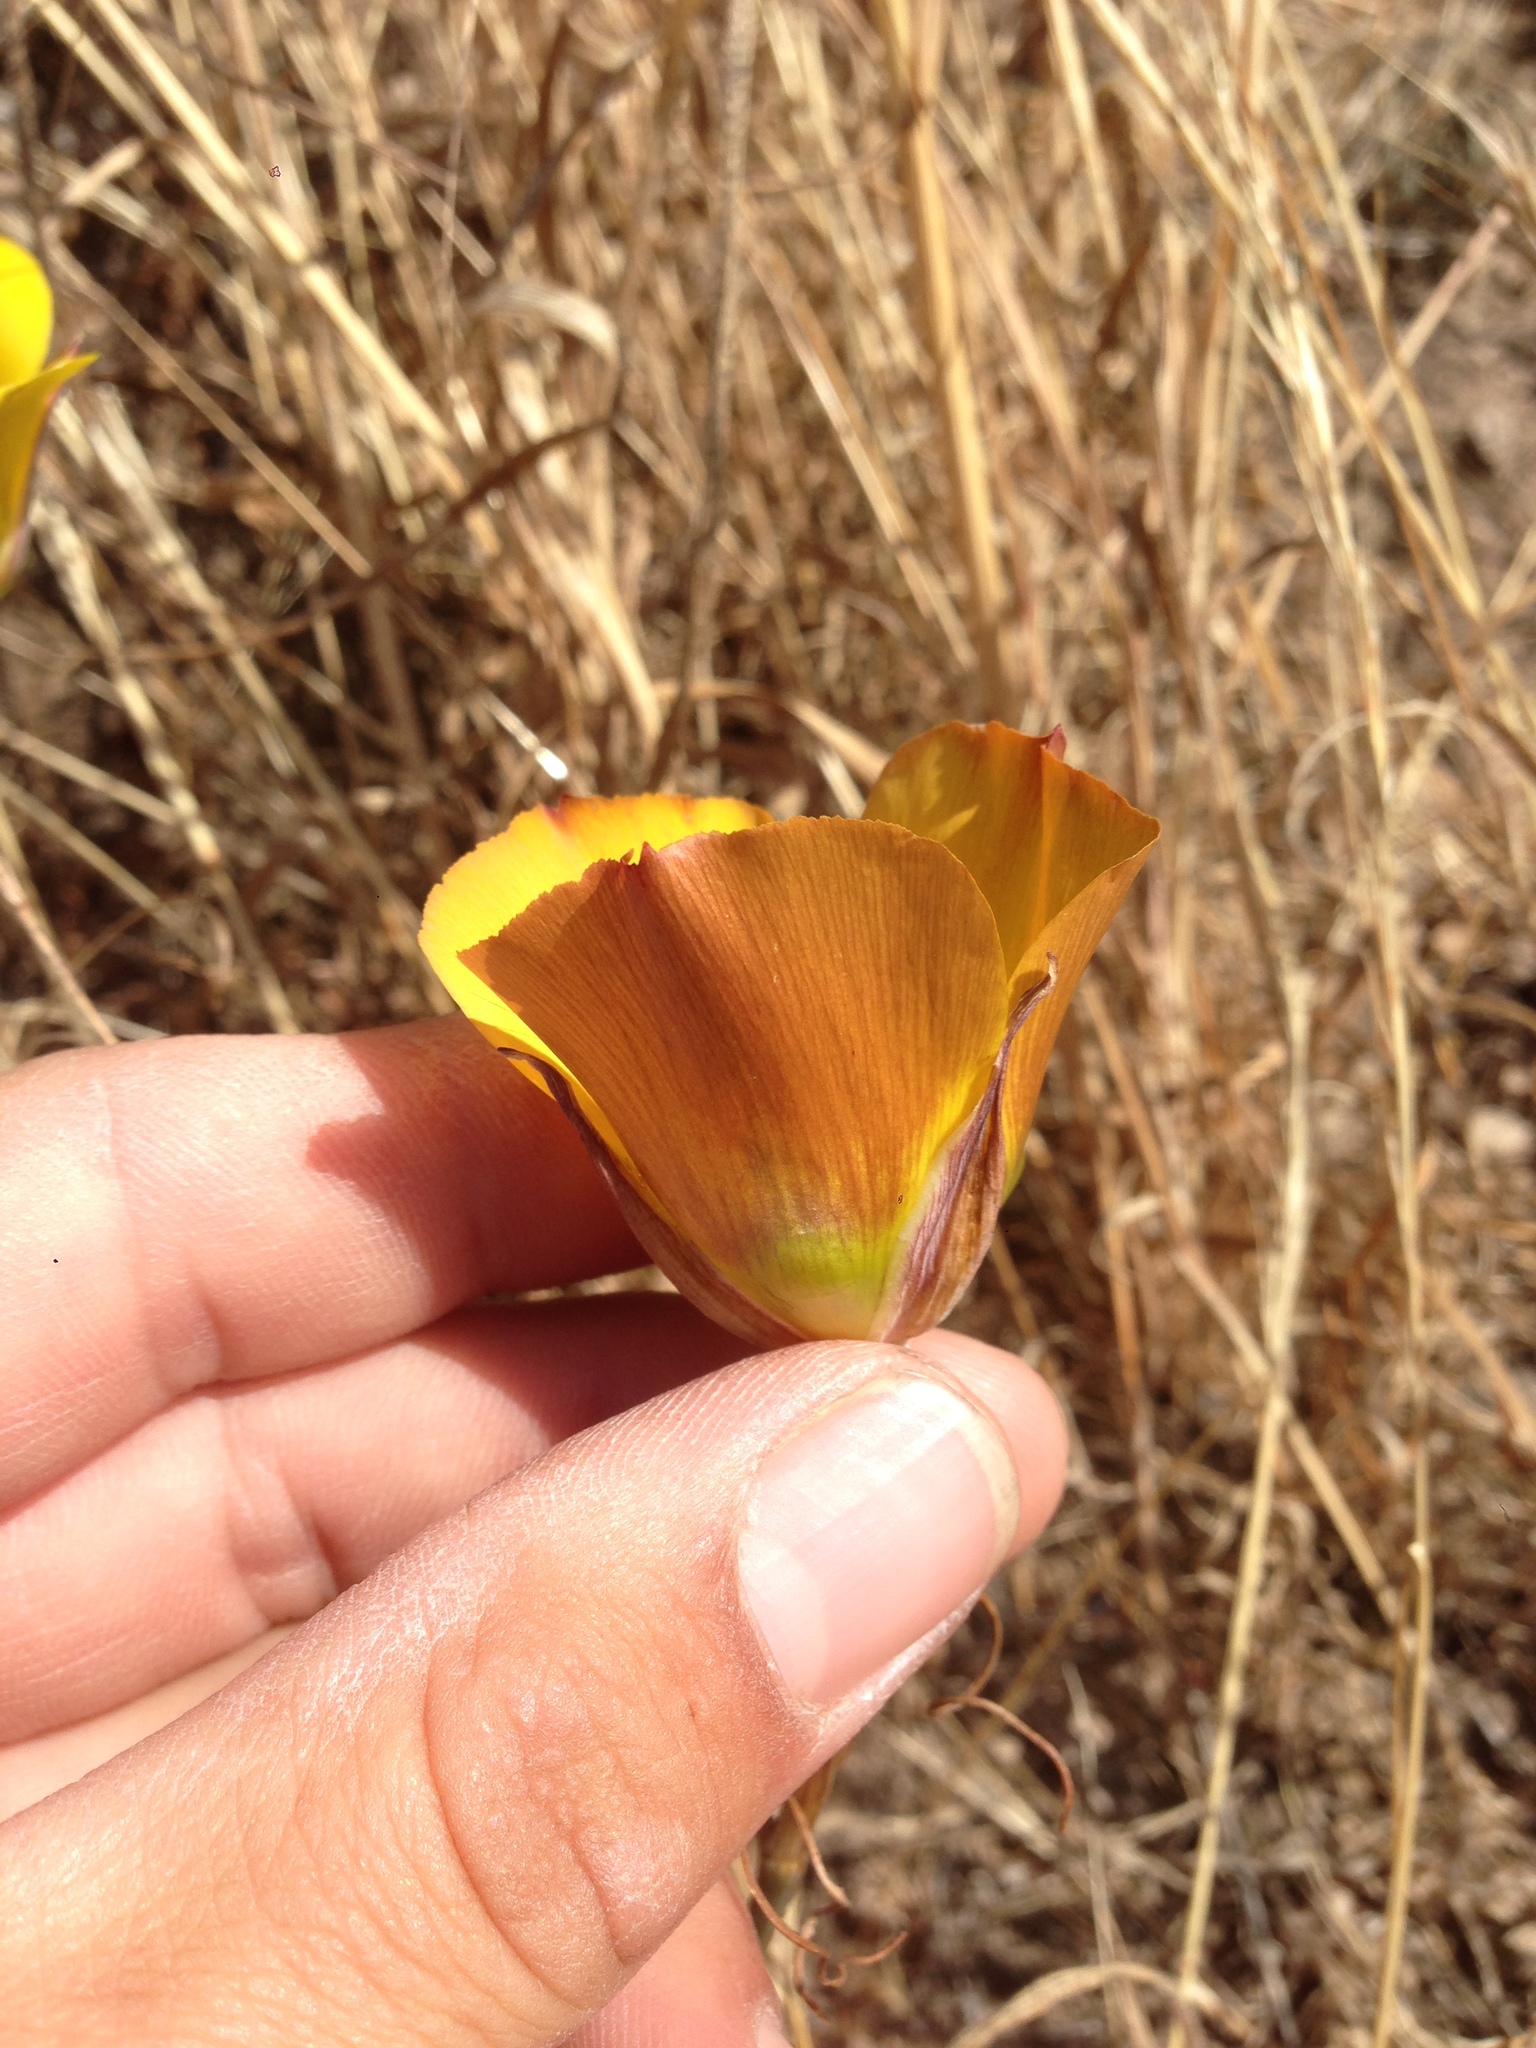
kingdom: Plantae
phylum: Tracheophyta
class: Liliopsida
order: Liliales
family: Liliaceae
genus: Calochortus
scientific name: Calochortus clavatus
